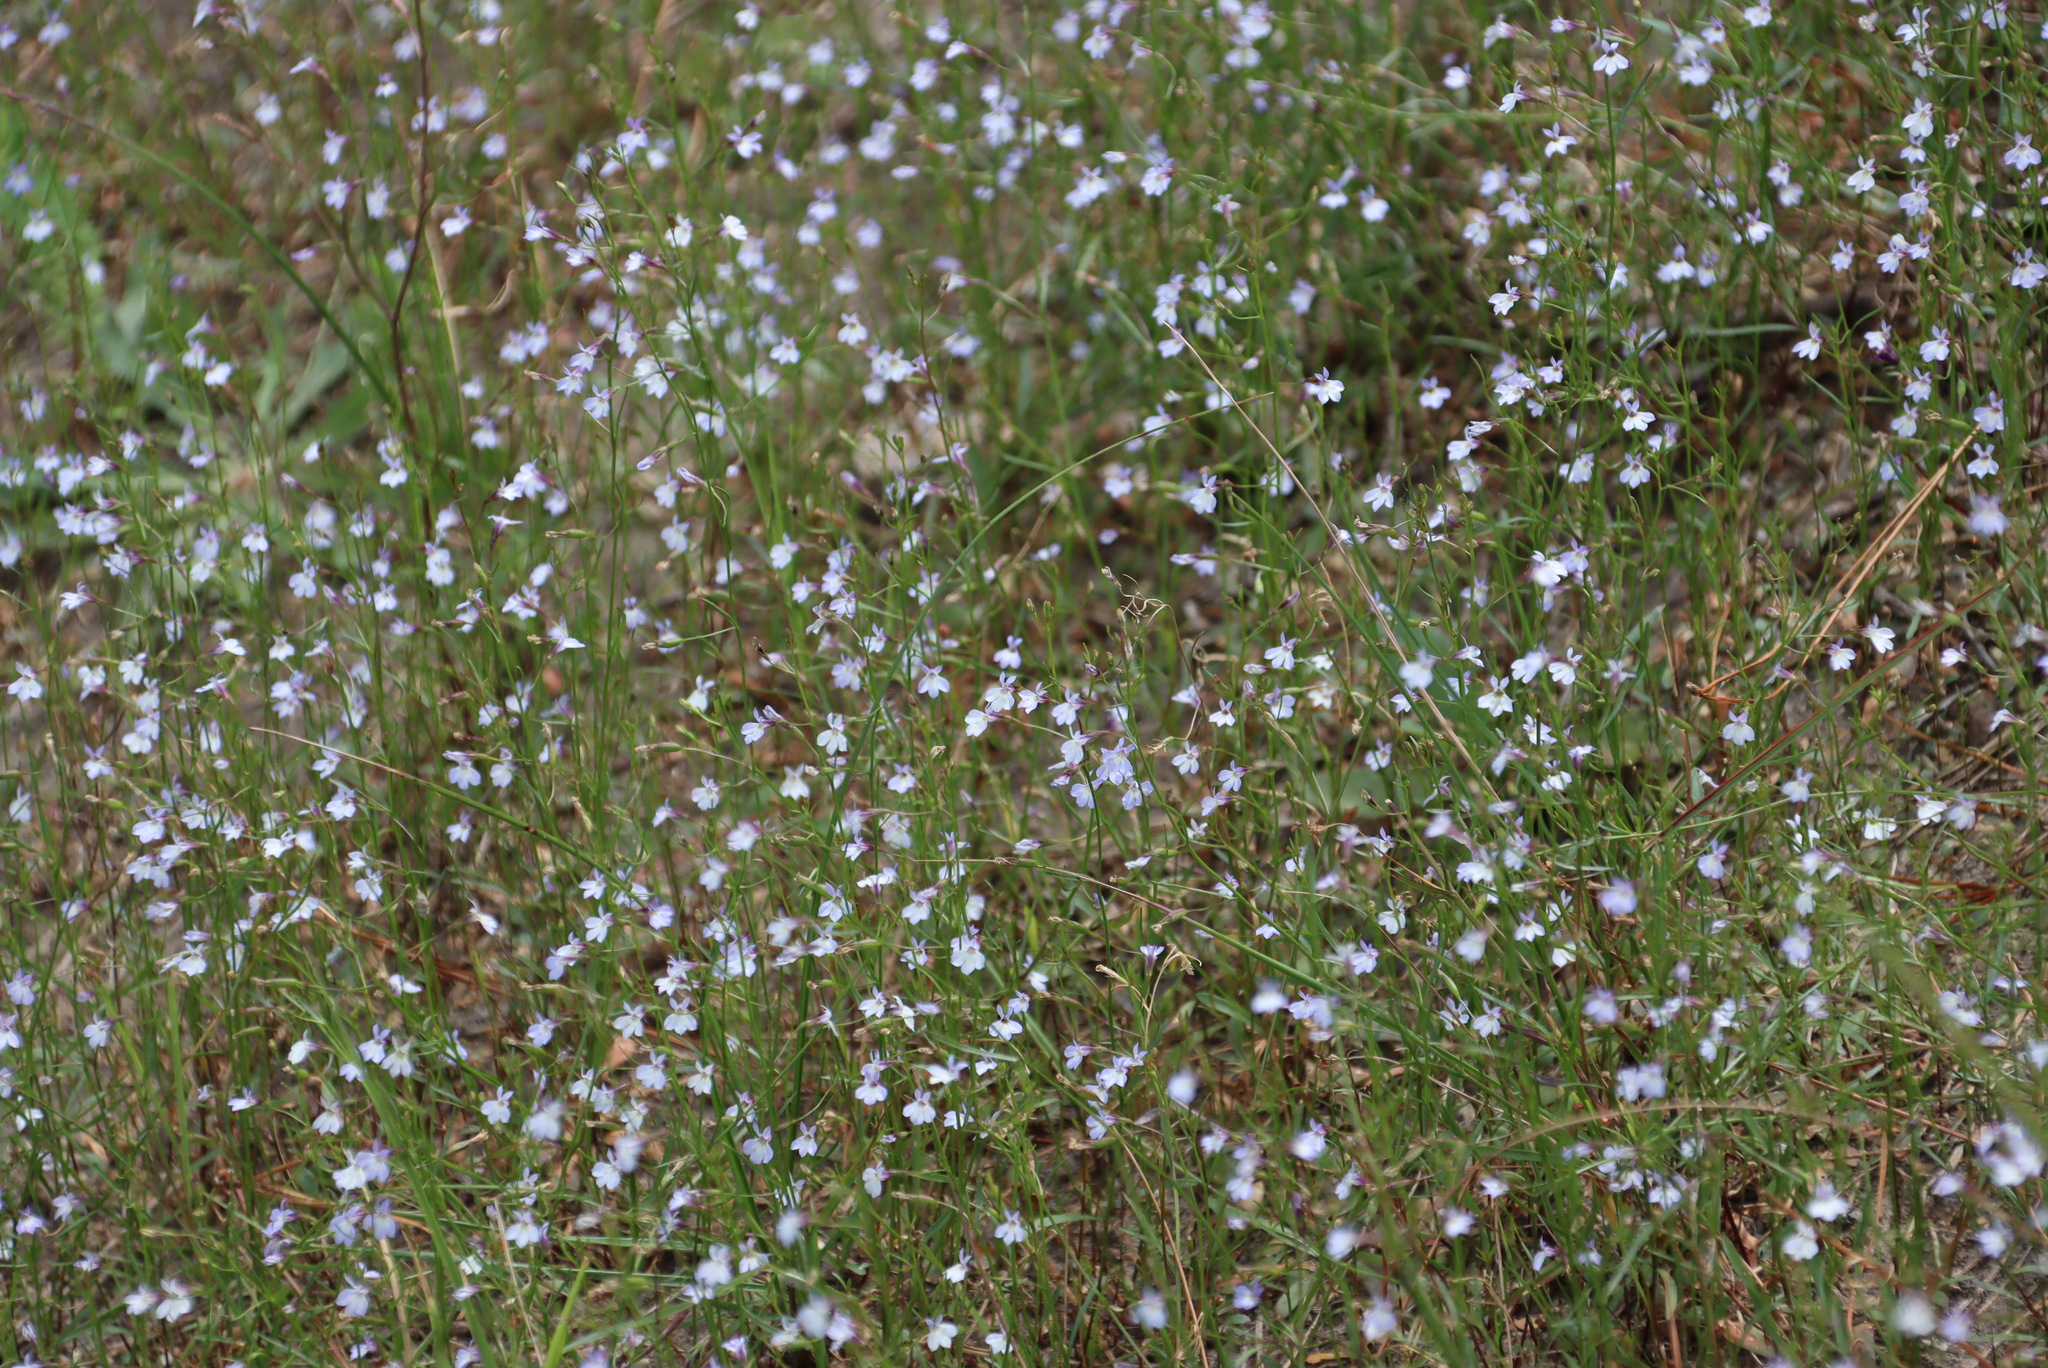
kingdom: Plantae
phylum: Tracheophyta
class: Magnoliopsida
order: Asterales
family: Campanulaceae
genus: Lobelia
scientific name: Lobelia erinus
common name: Edging lobelia
